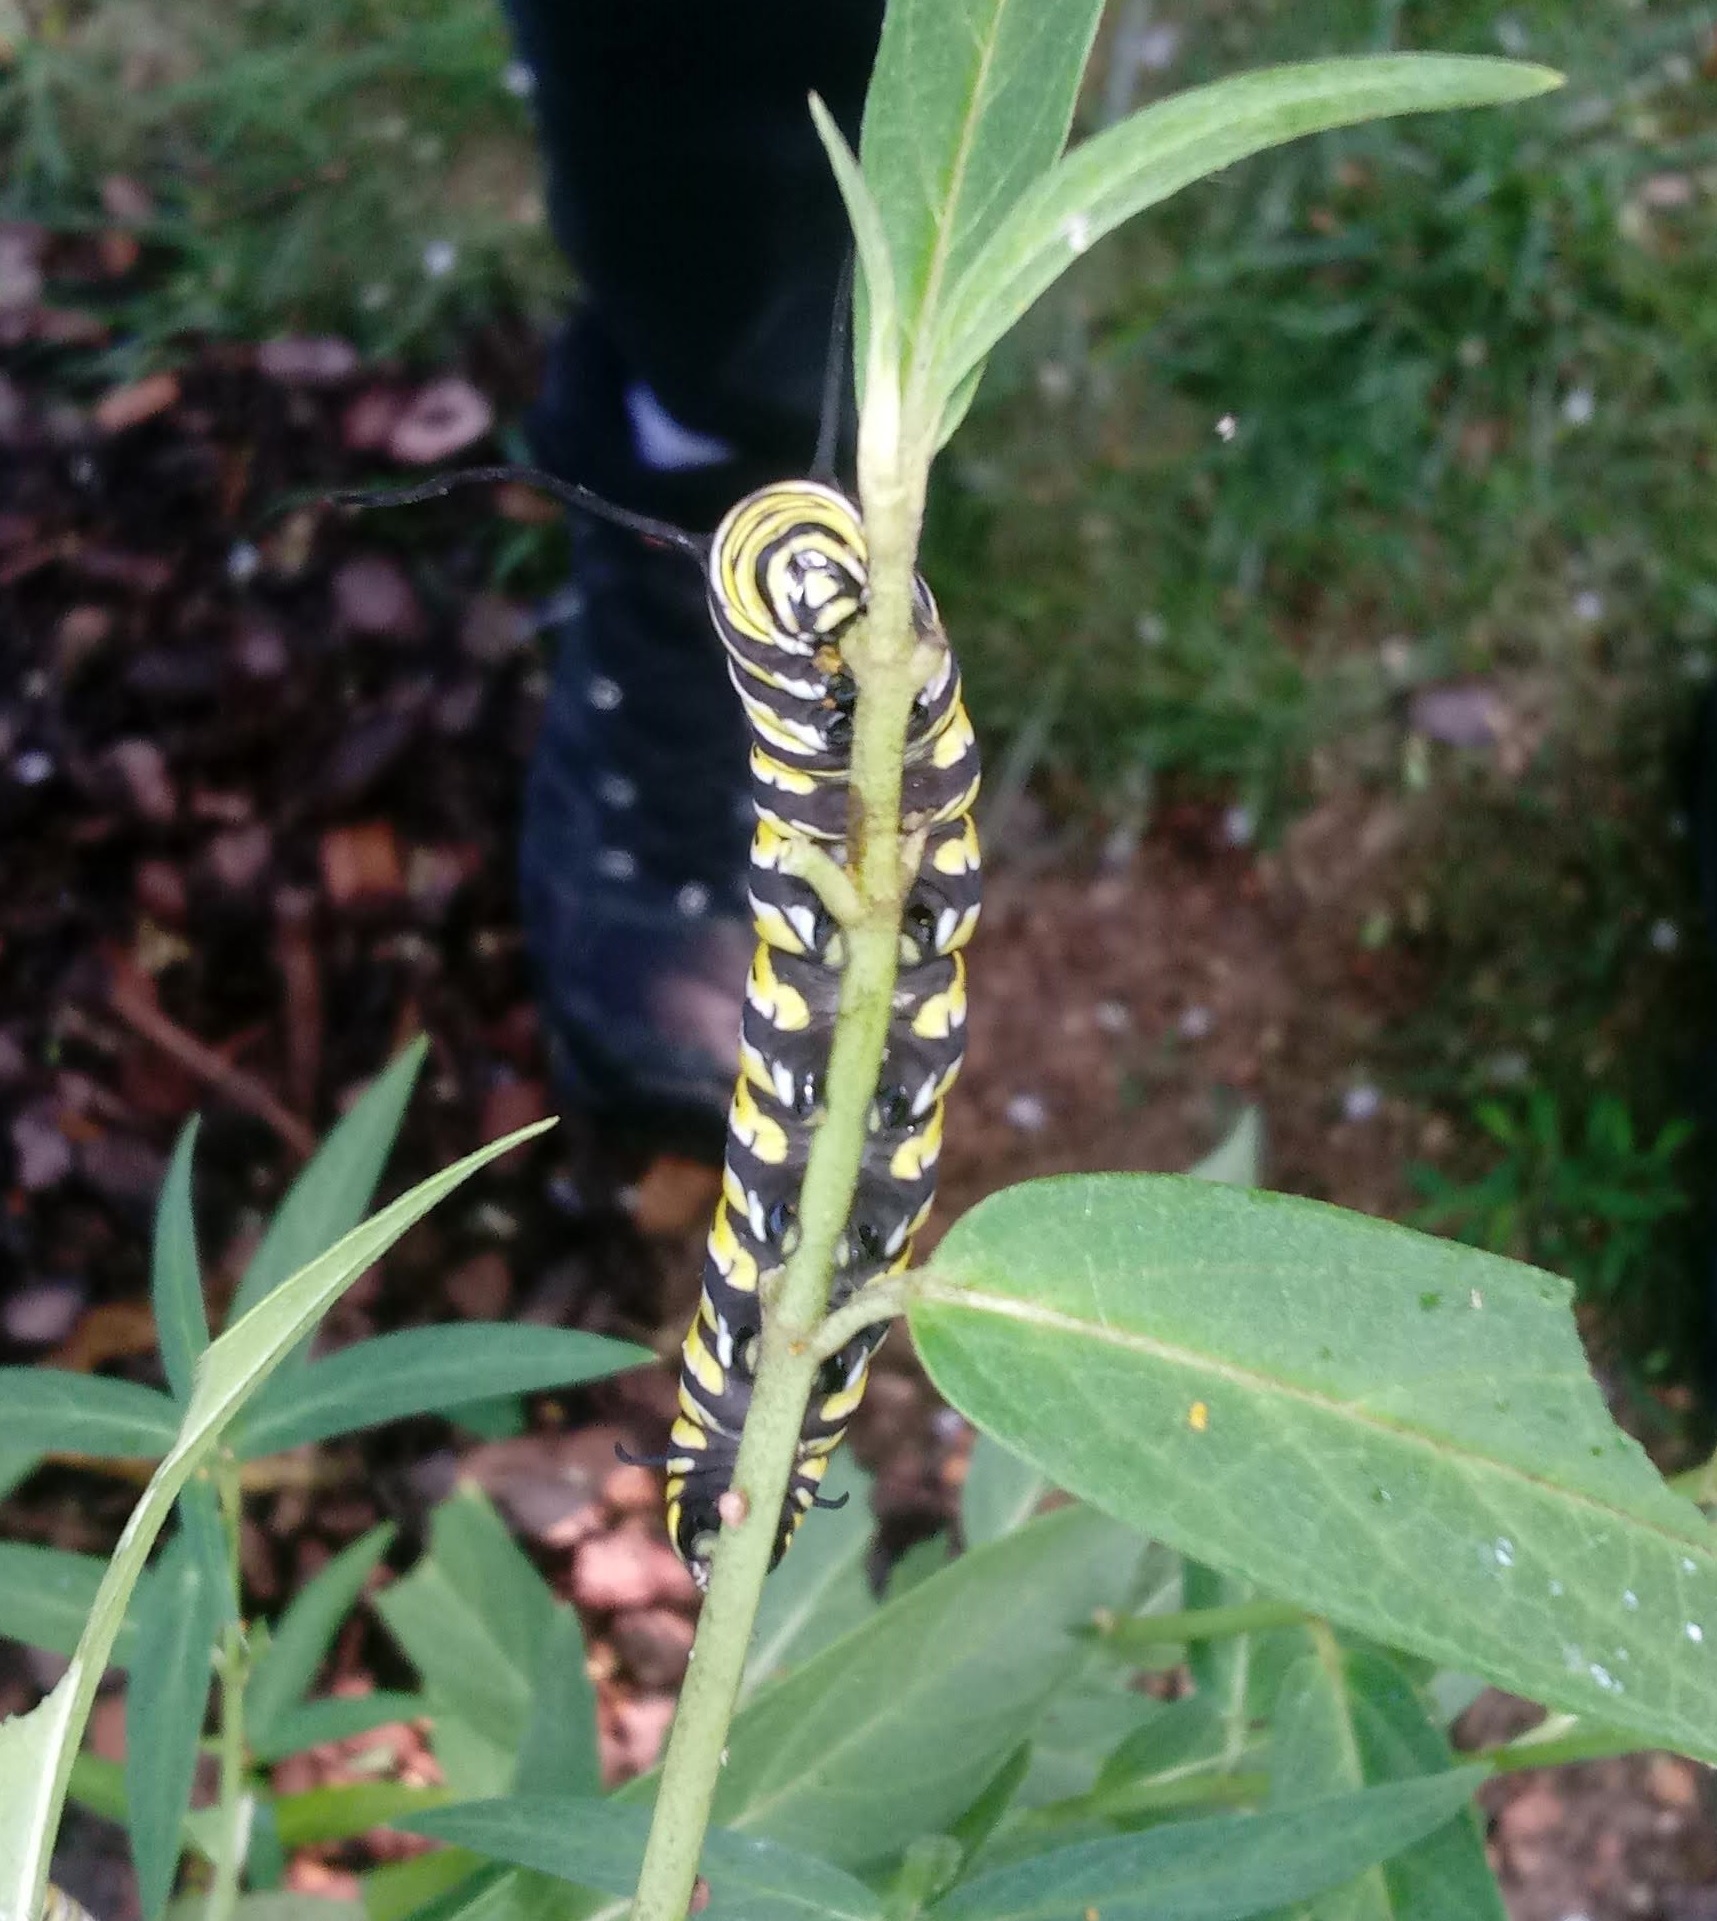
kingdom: Animalia
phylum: Arthropoda
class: Insecta
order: Lepidoptera
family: Nymphalidae
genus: Danaus
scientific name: Danaus plexippus
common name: Monarch
